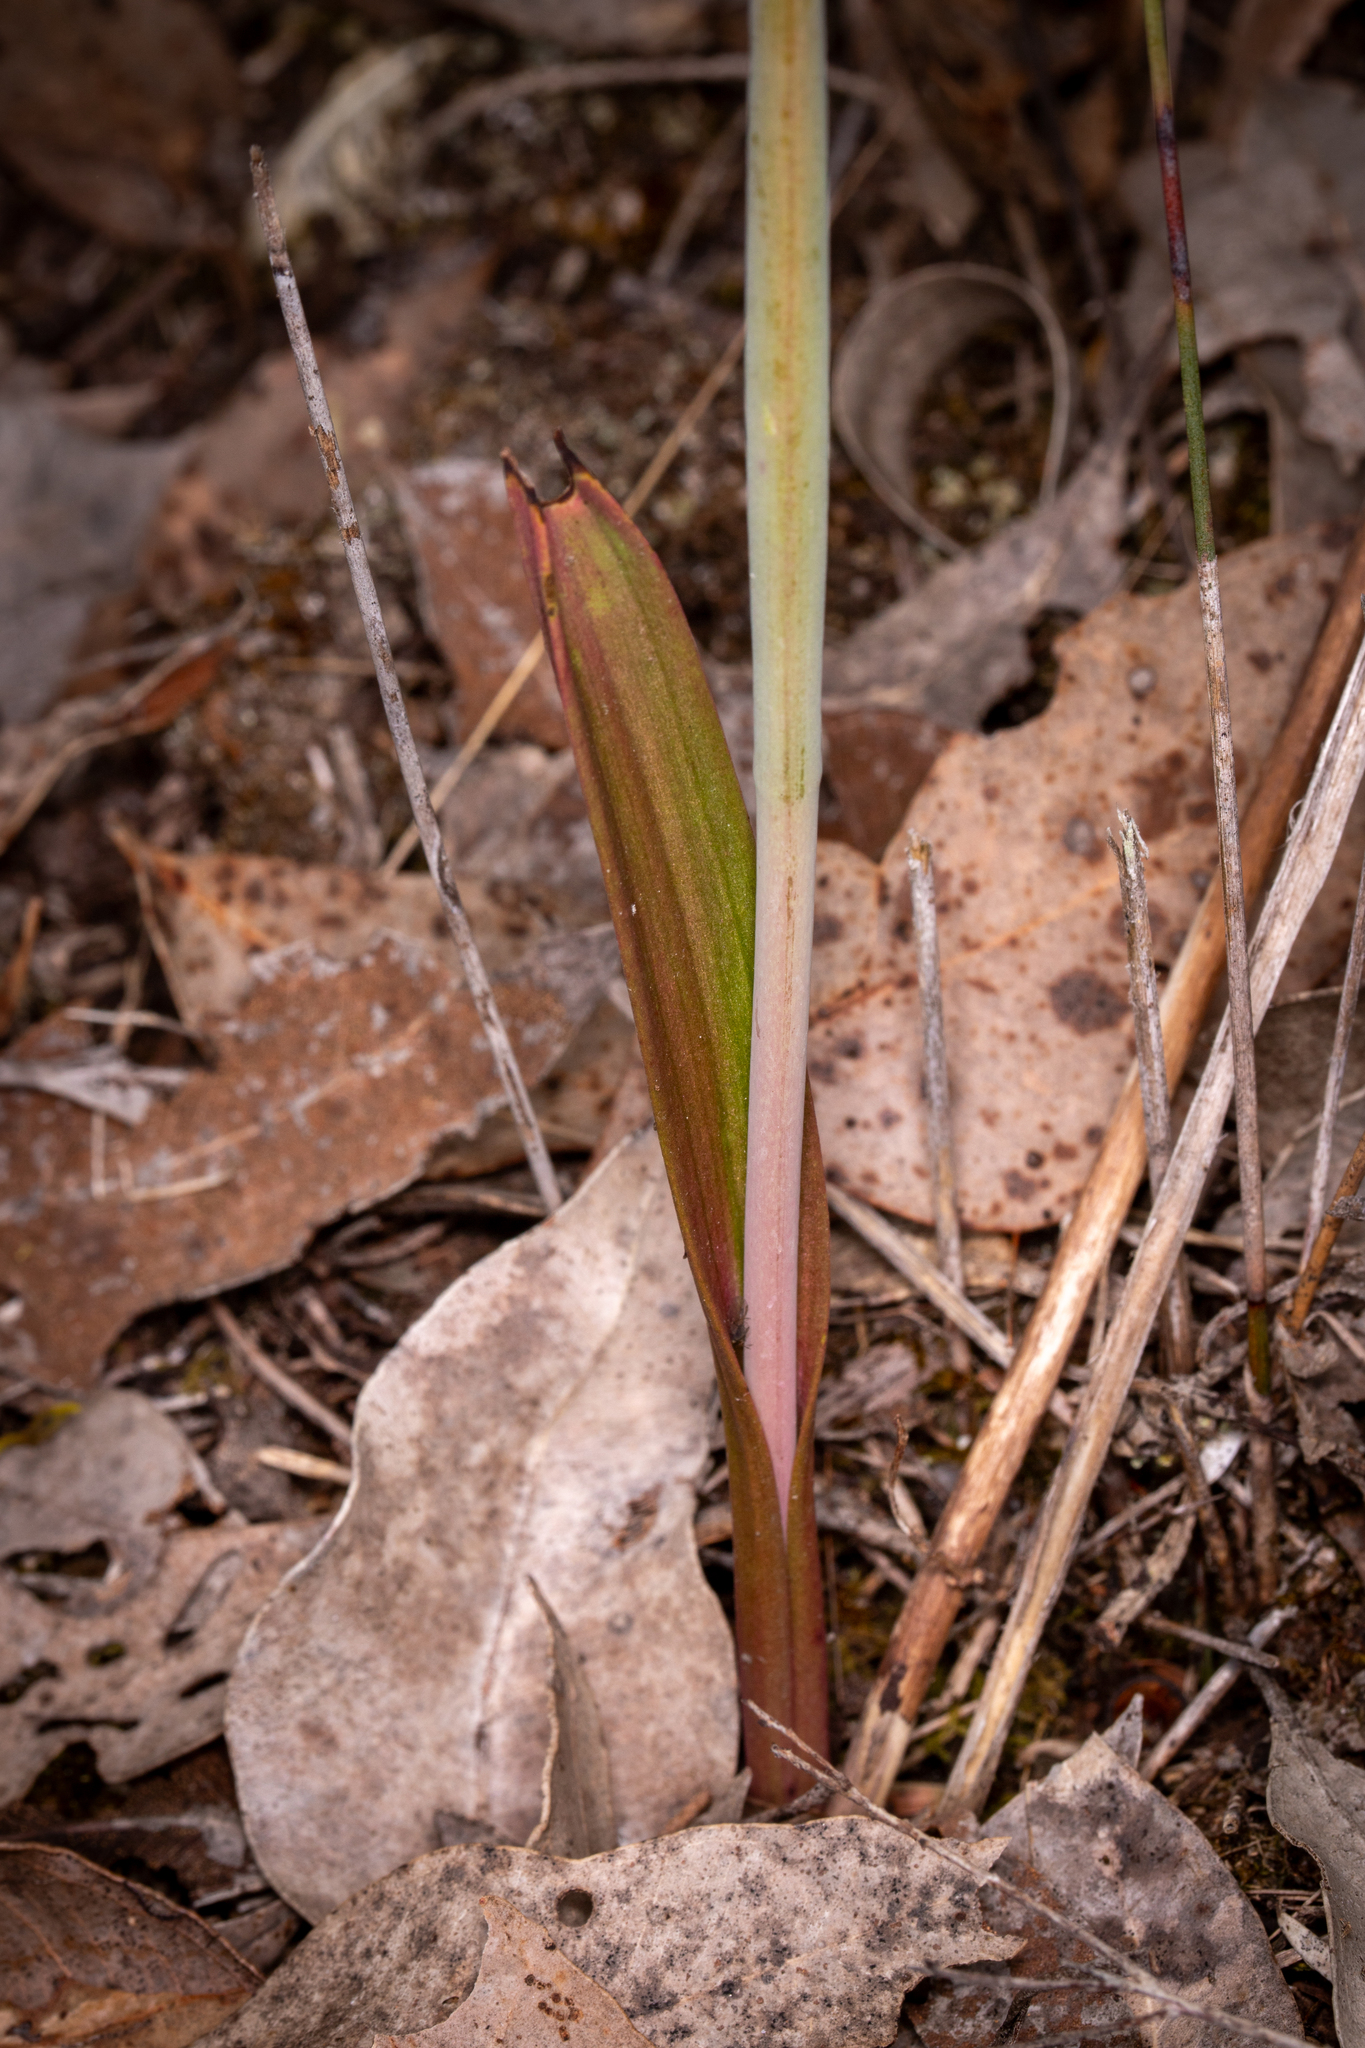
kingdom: Plantae
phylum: Tracheophyta
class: Liliopsida
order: Asparagales
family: Orchidaceae
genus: Thelymitra
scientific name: Thelymitra graminea
